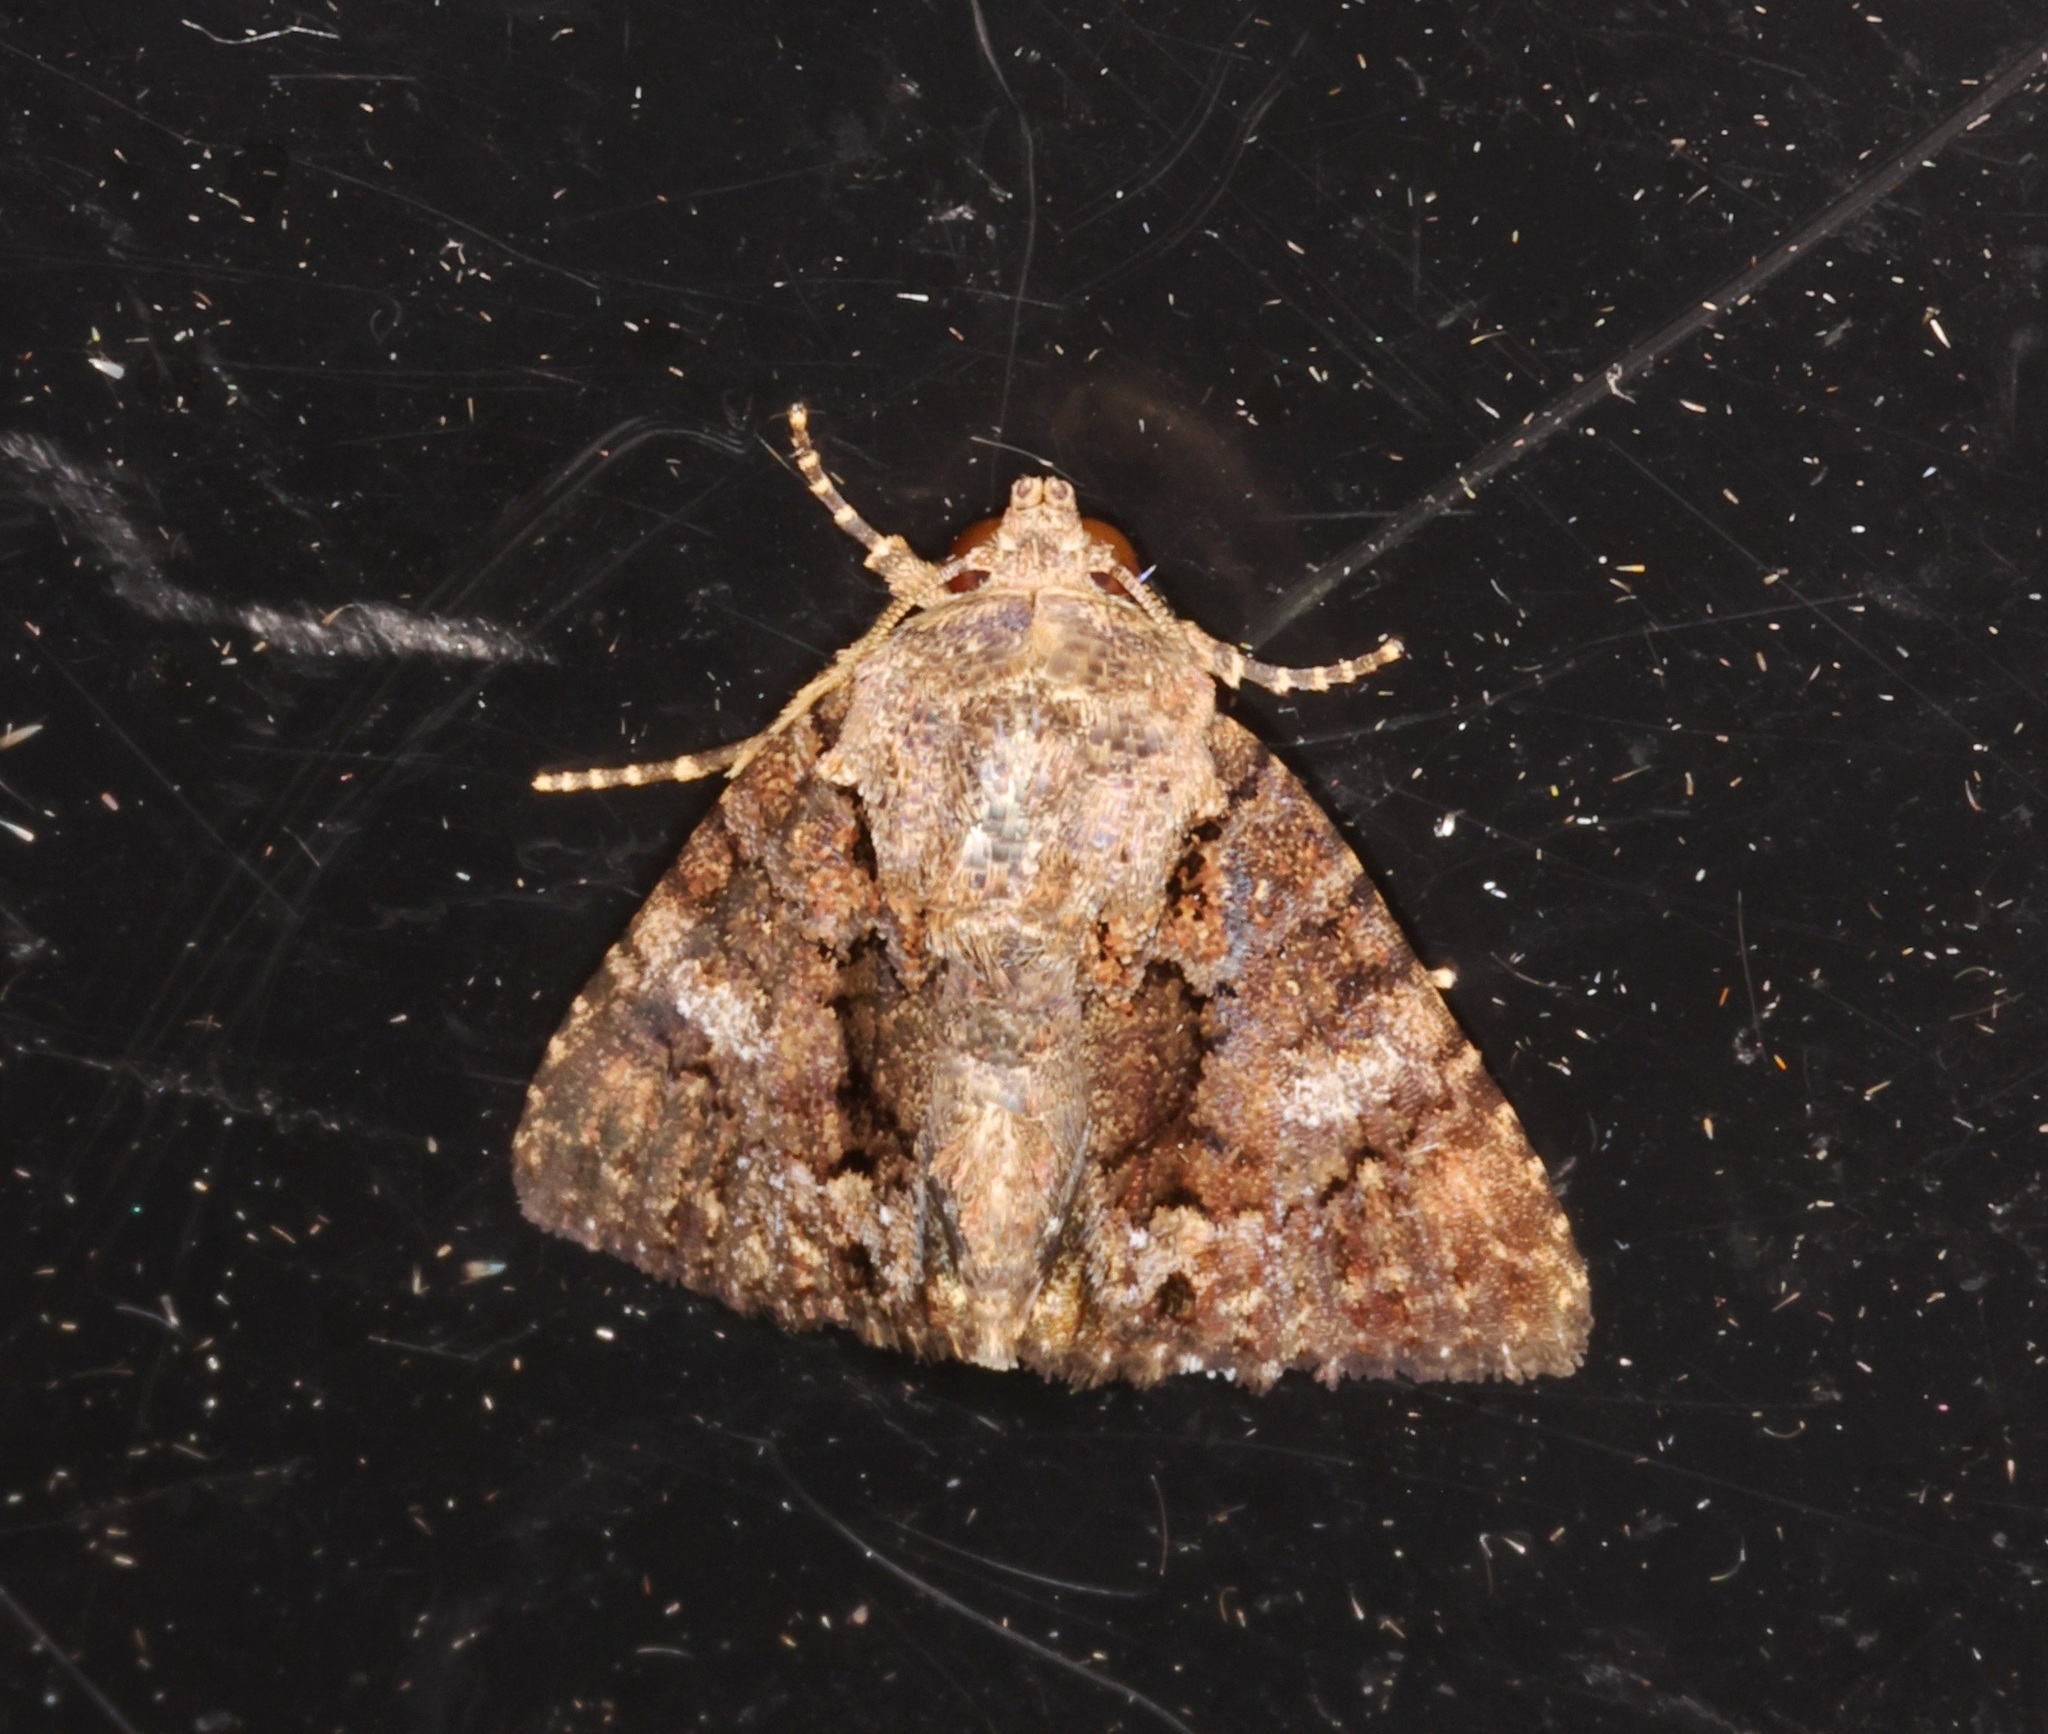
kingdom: Animalia
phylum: Arthropoda
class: Insecta
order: Lepidoptera
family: Erebidae
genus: Ecpatia
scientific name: Ecpatia longinquua
